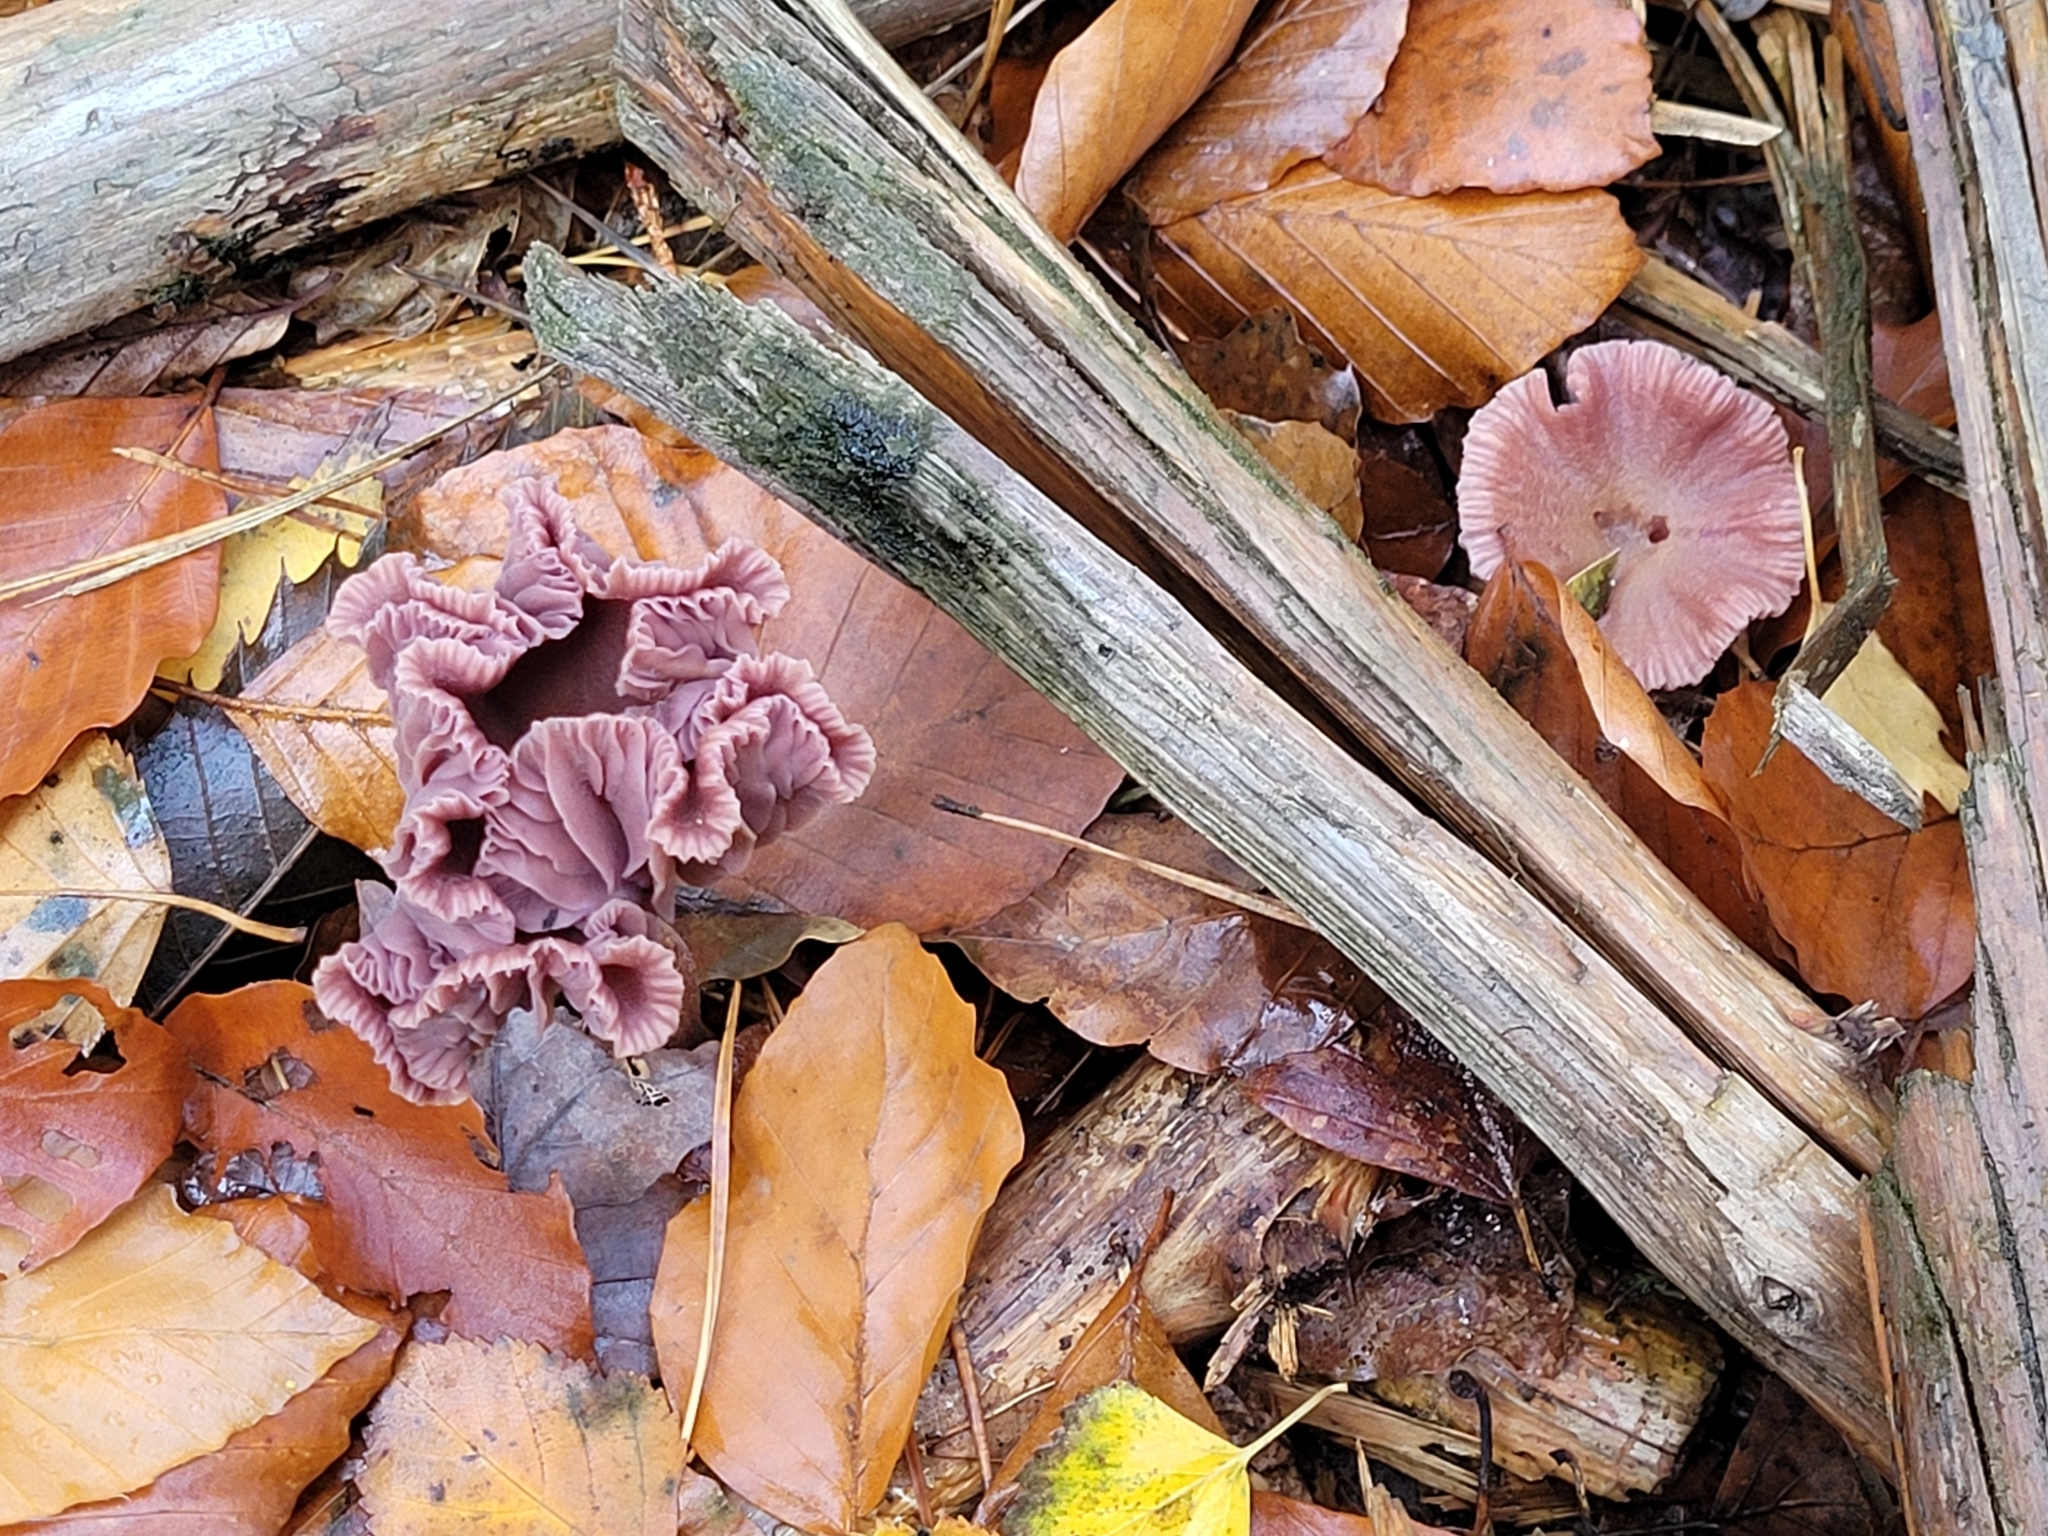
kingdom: Fungi
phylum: Basidiomycota
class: Agaricomycetes
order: Agaricales
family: Hydnangiaceae
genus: Laccaria
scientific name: Laccaria amethystina
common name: Amethyst deceiver
